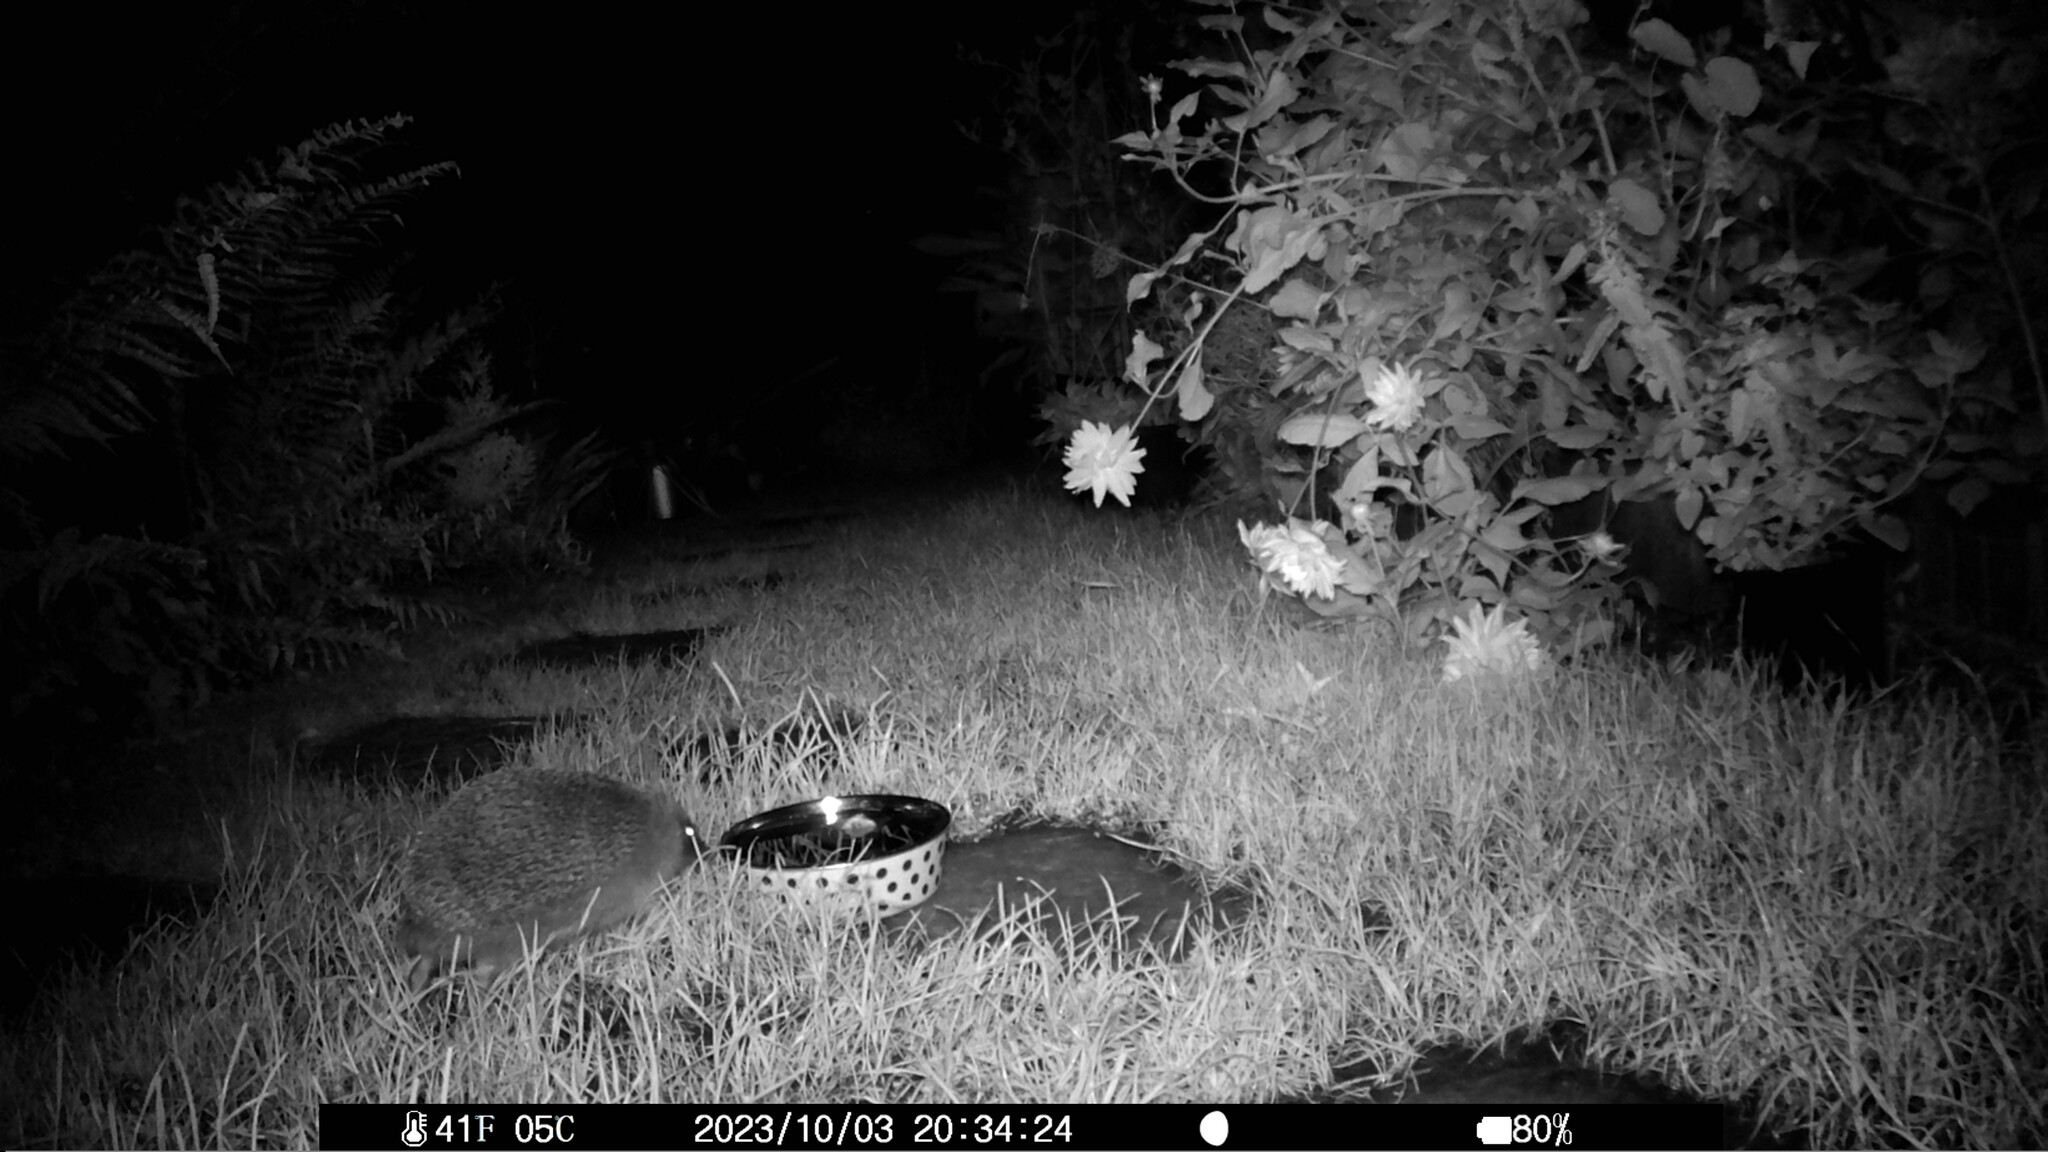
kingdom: Animalia
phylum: Chordata
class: Mammalia
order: Erinaceomorpha
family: Erinaceidae
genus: Erinaceus
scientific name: Erinaceus europaeus
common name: West european hedgehog
